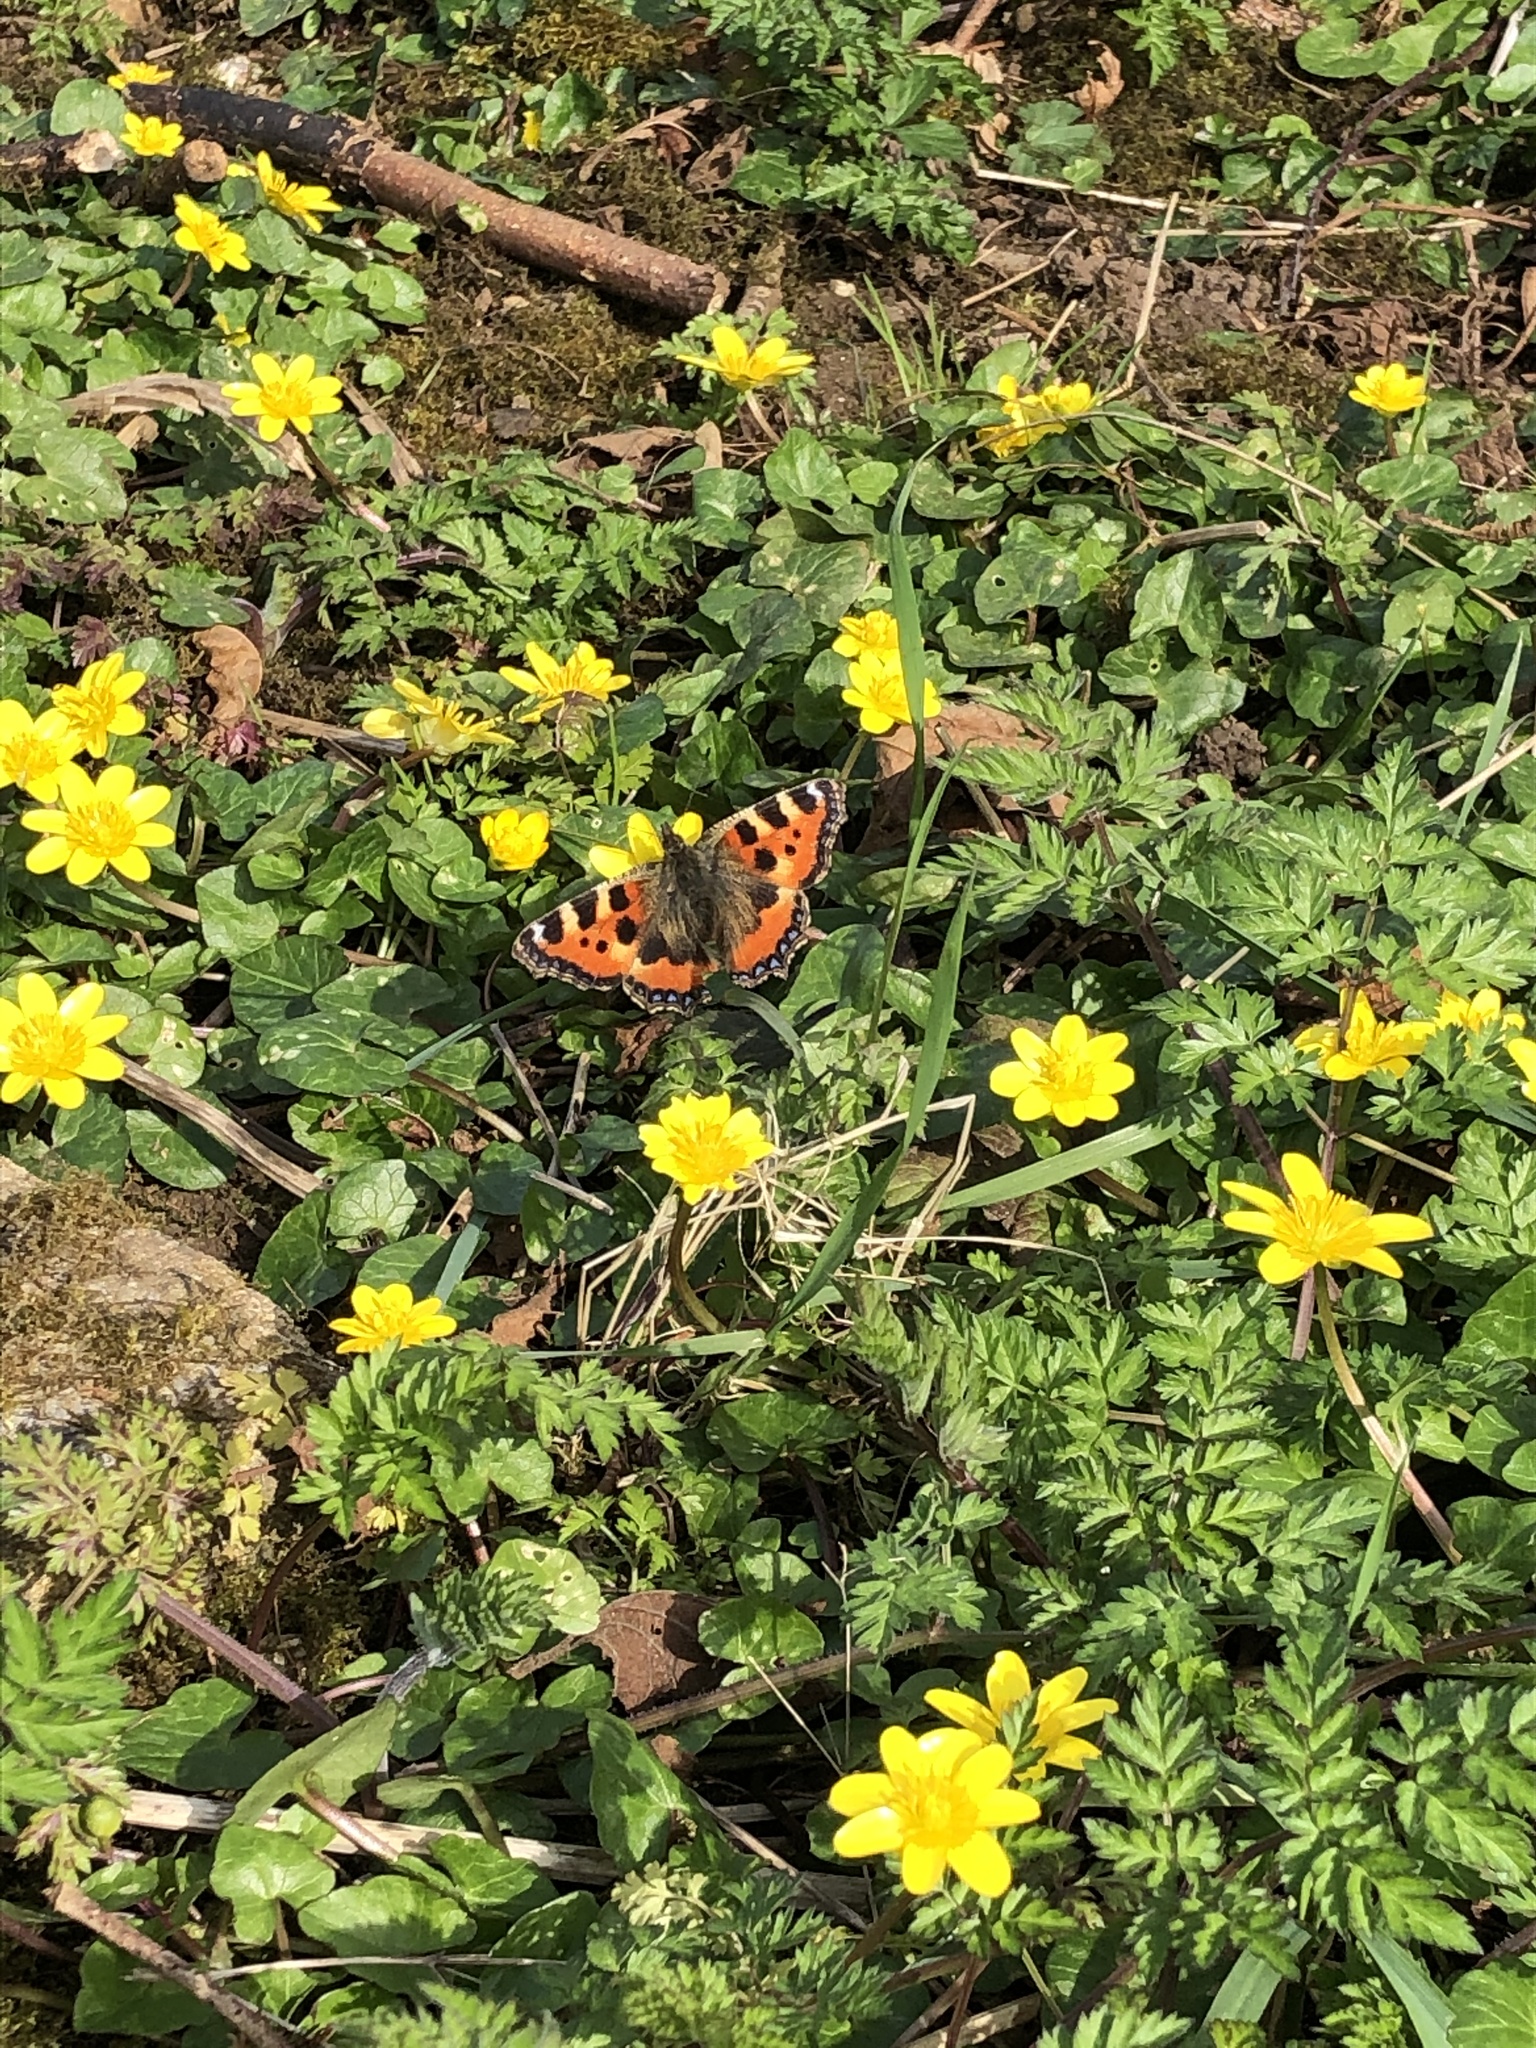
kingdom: Animalia
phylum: Arthropoda
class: Insecta
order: Lepidoptera
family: Nymphalidae
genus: Aglais
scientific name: Aglais urticae
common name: Small tortoiseshell
